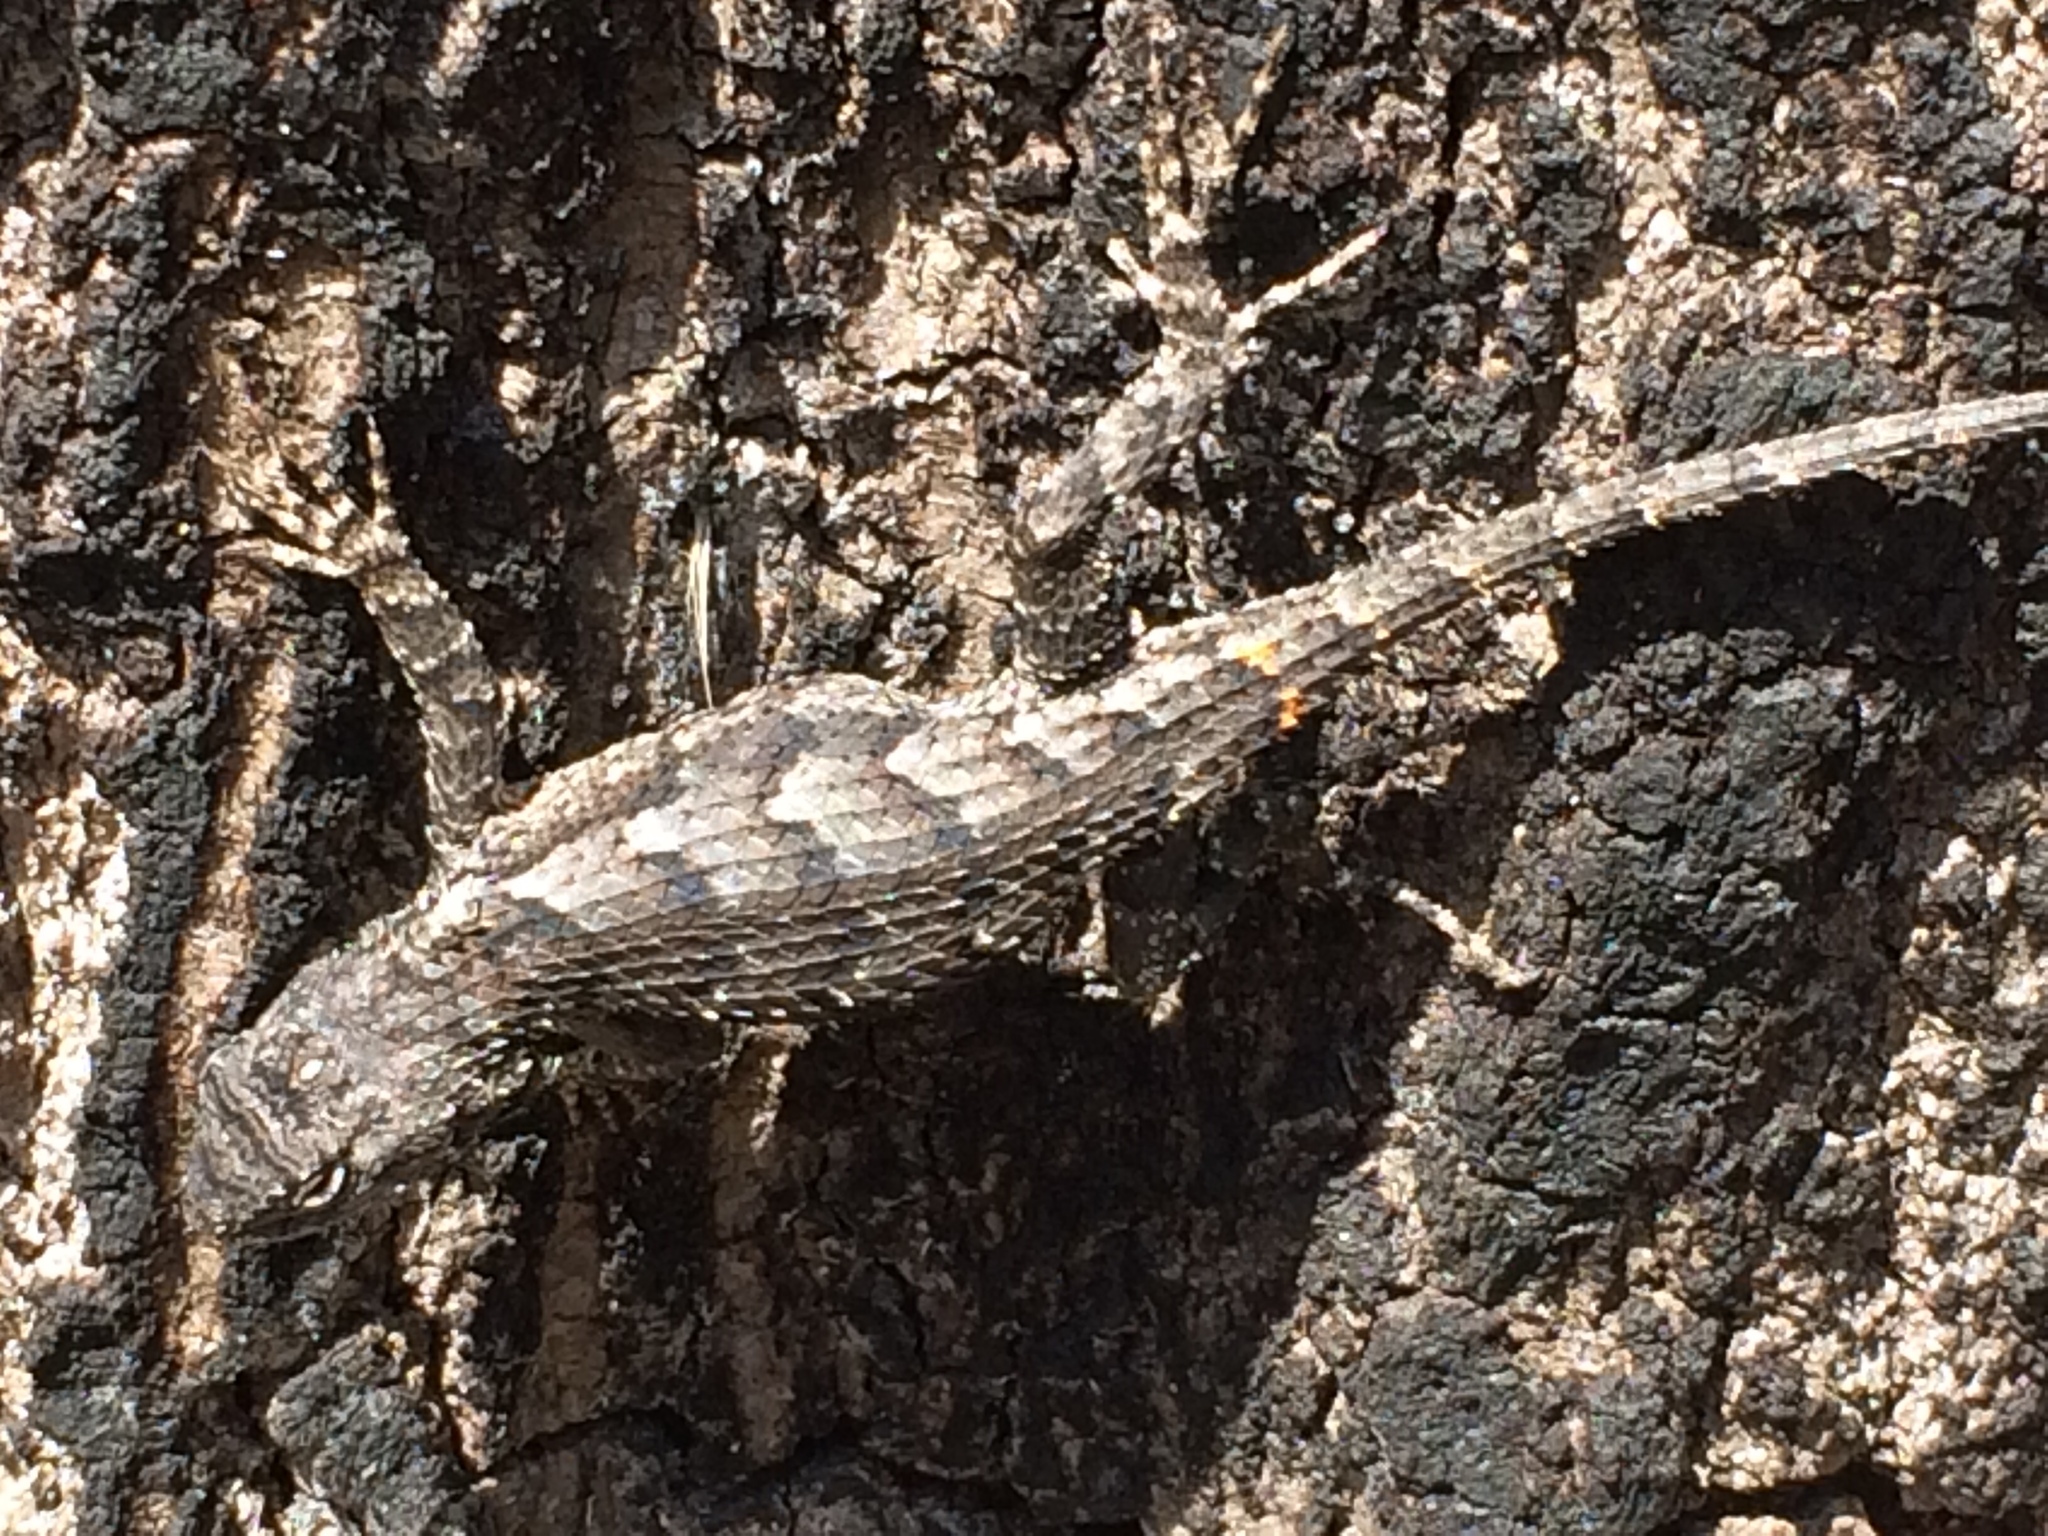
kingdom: Animalia
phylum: Chordata
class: Squamata
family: Phrynosomatidae
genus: Sceloporus
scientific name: Sceloporus undulatus
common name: Eastern fence lizard
